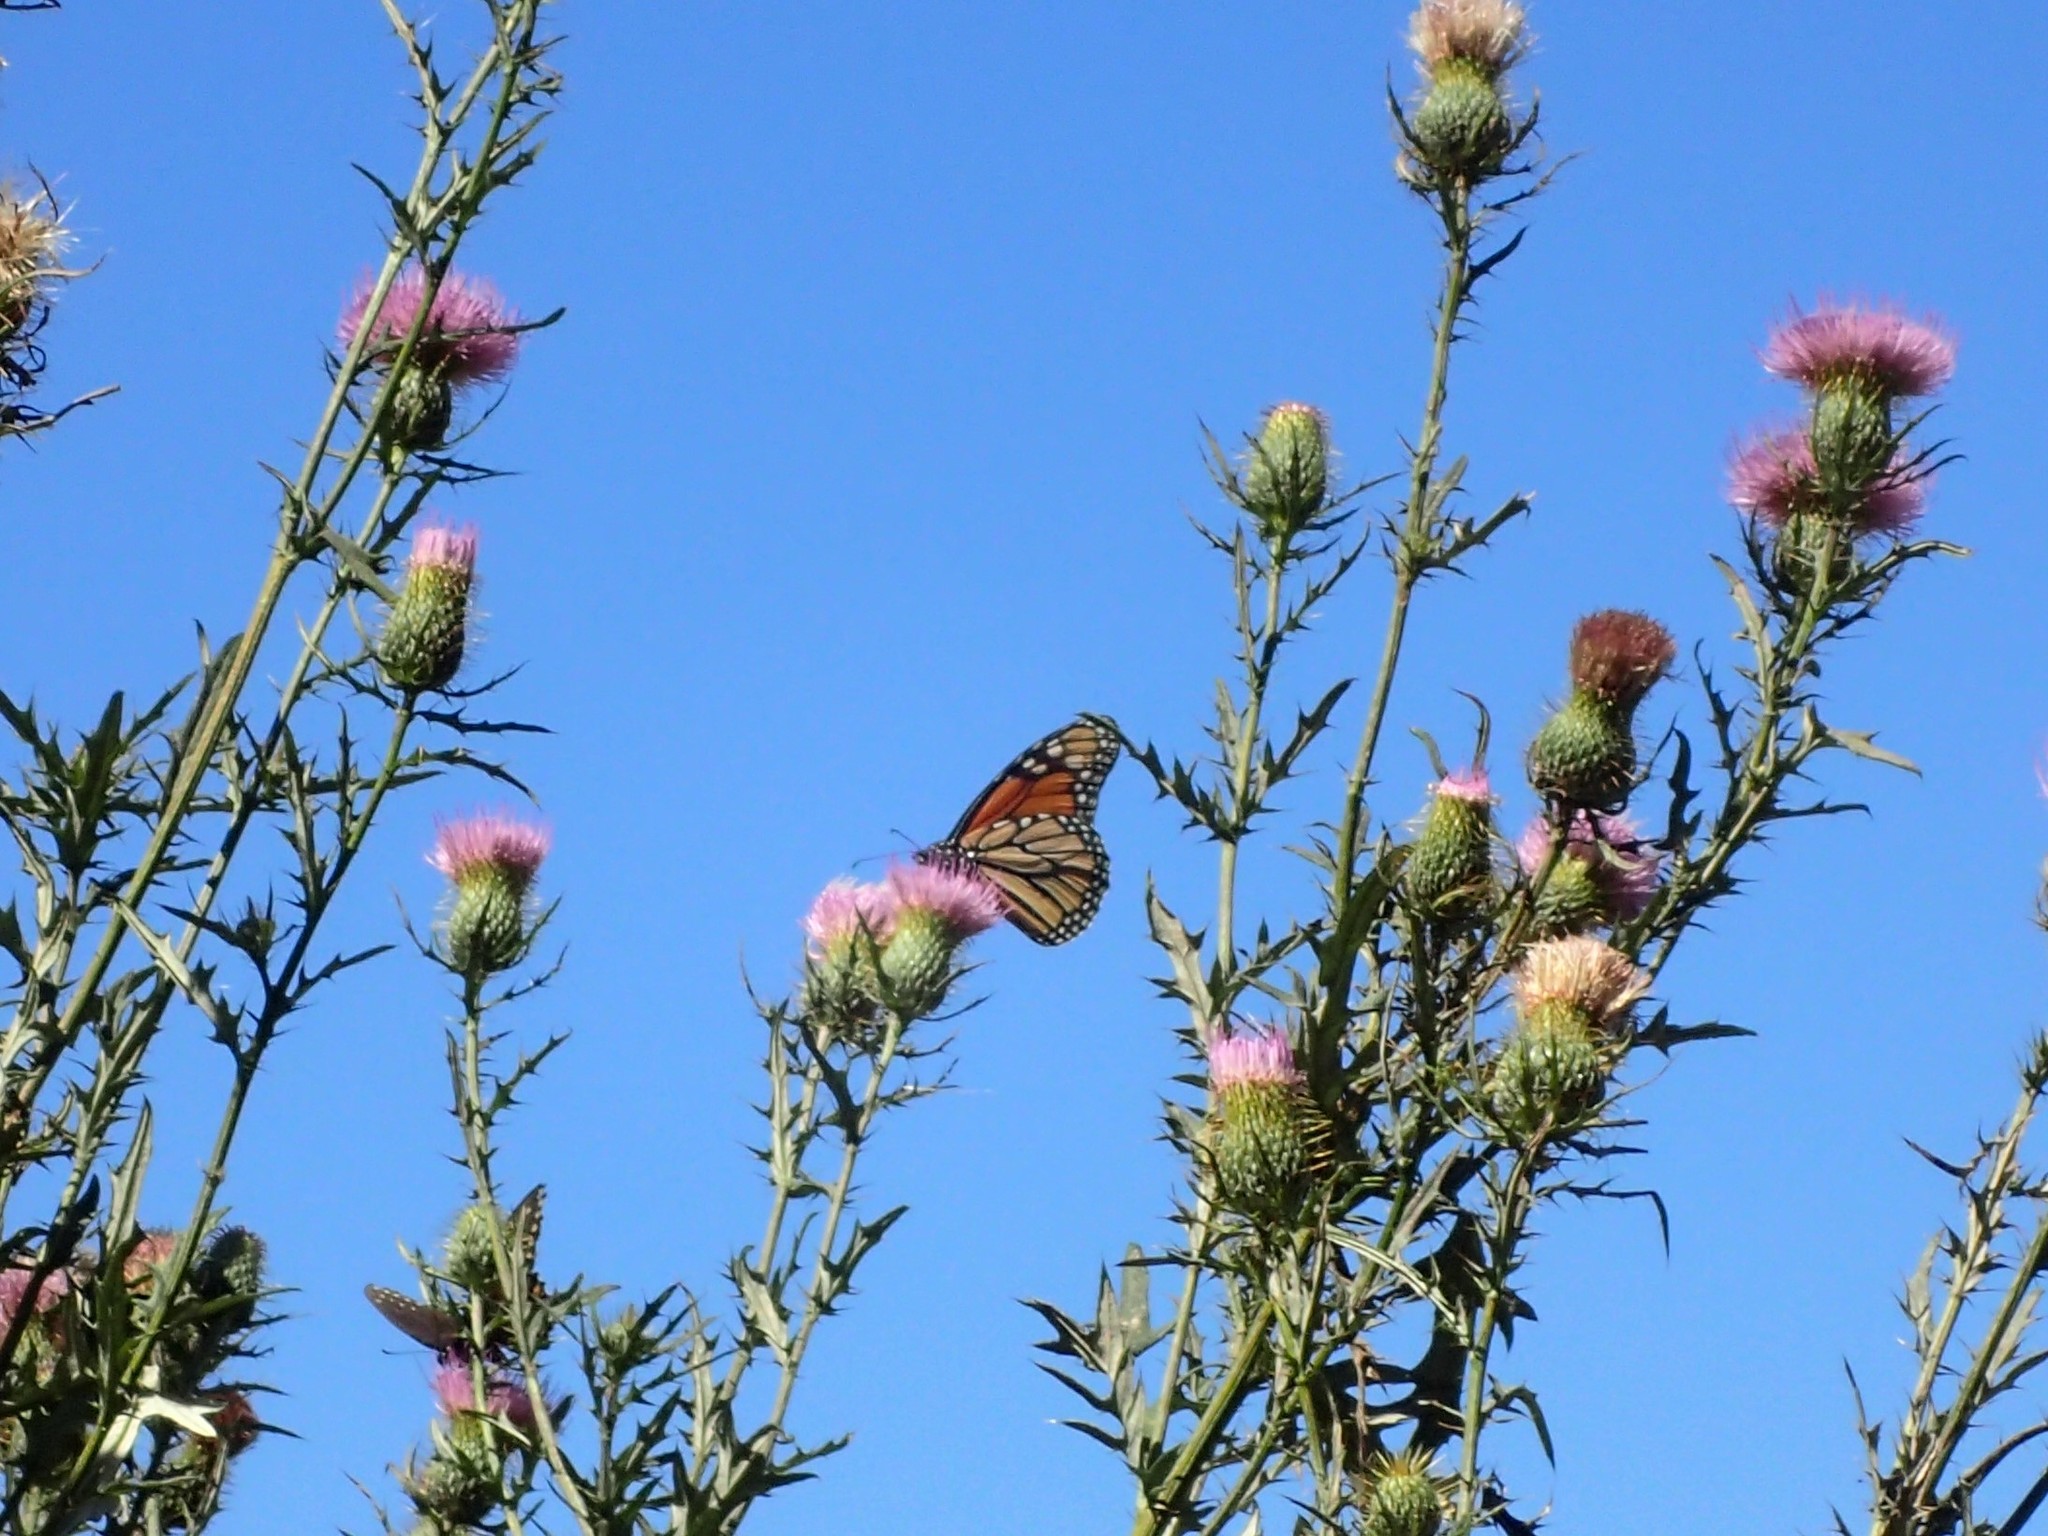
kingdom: Animalia
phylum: Arthropoda
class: Insecta
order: Lepidoptera
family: Nymphalidae
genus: Danaus
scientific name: Danaus plexippus
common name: Monarch
